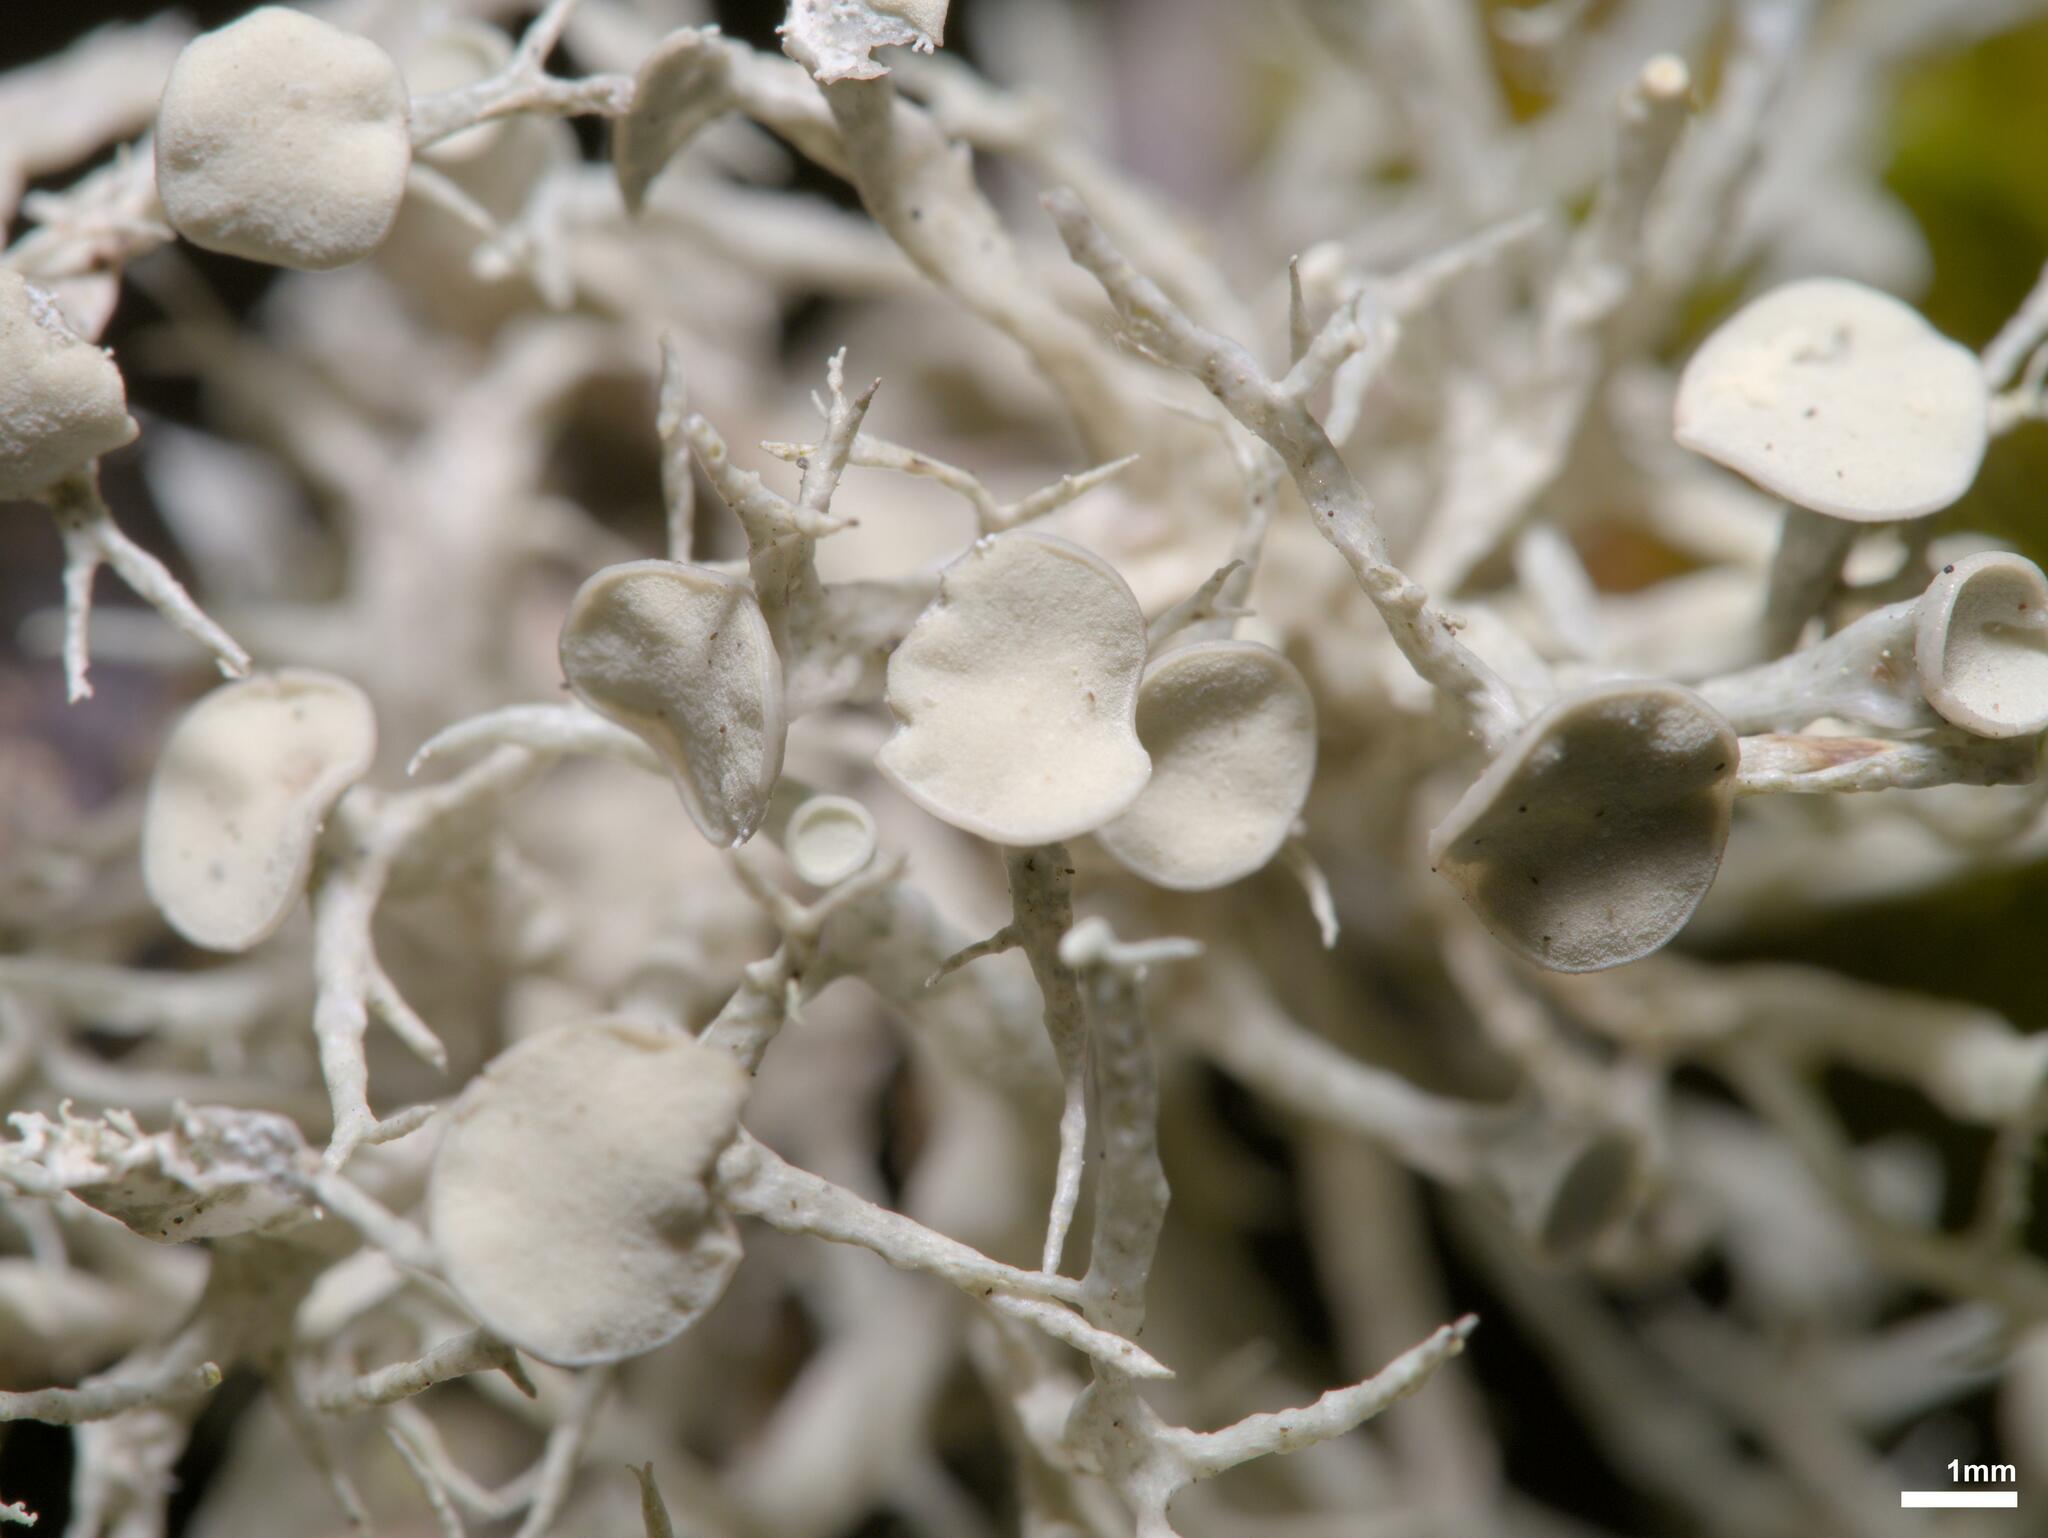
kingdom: Fungi
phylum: Ascomycota
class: Lecanoromycetes
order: Lecanorales
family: Ramalinaceae
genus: Ramalina
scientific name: Ramalina dilacerata
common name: Punctured bushy lichen
